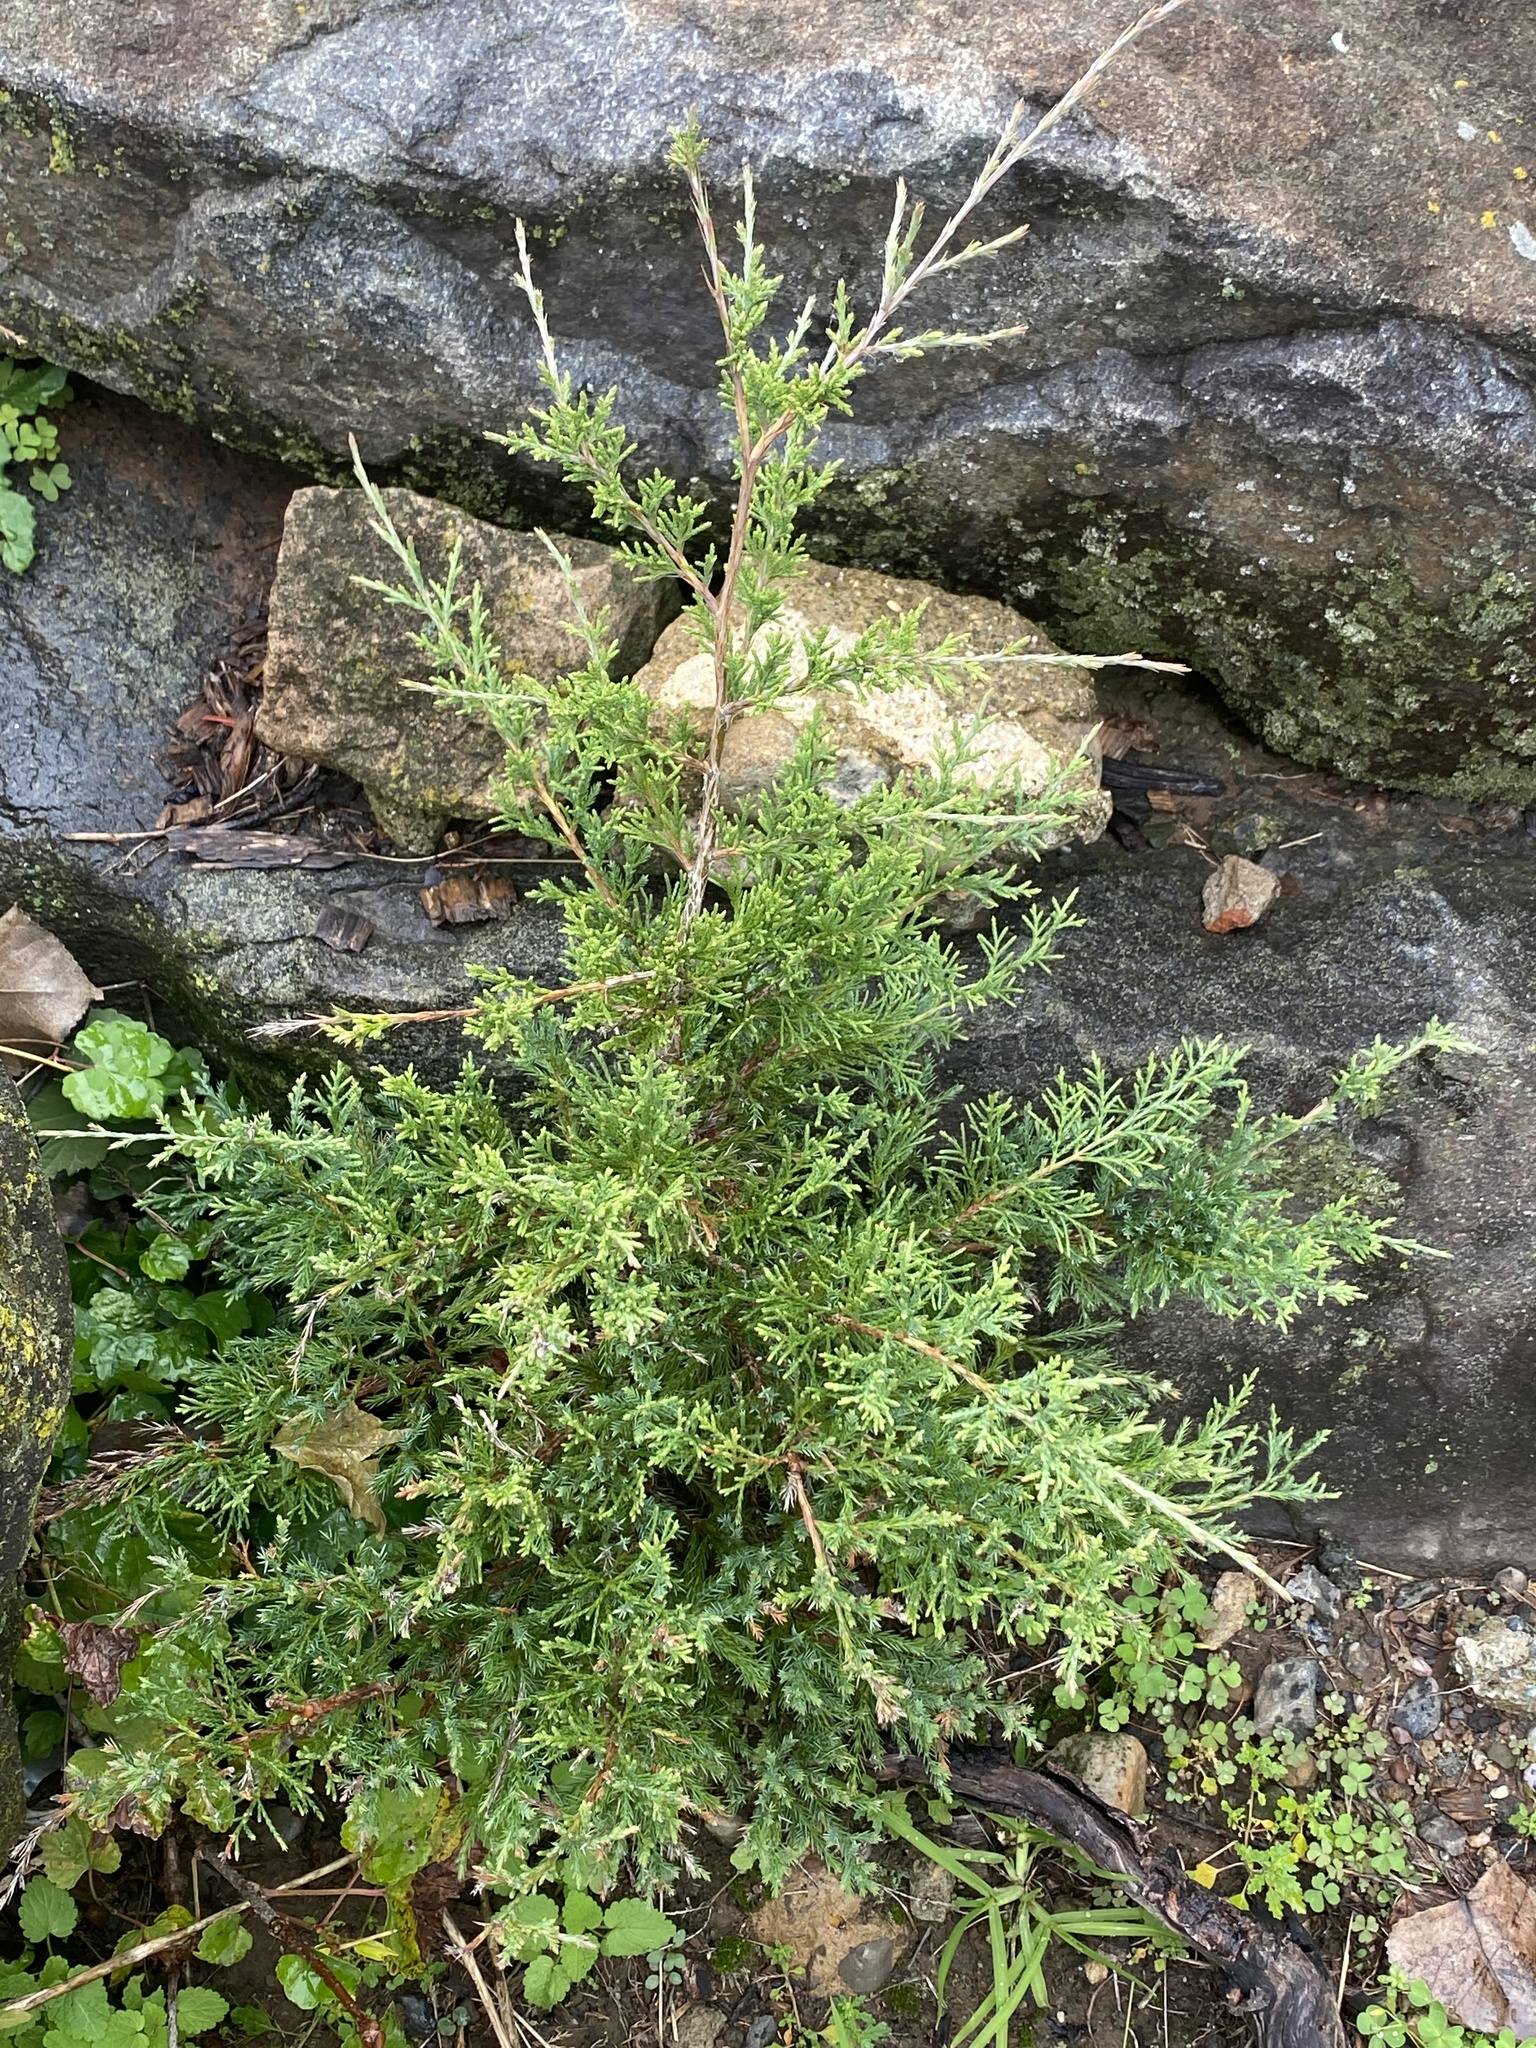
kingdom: Plantae
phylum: Tracheophyta
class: Pinopsida
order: Pinales
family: Cupressaceae
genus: Juniperus
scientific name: Juniperus virginiana
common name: Red juniper
